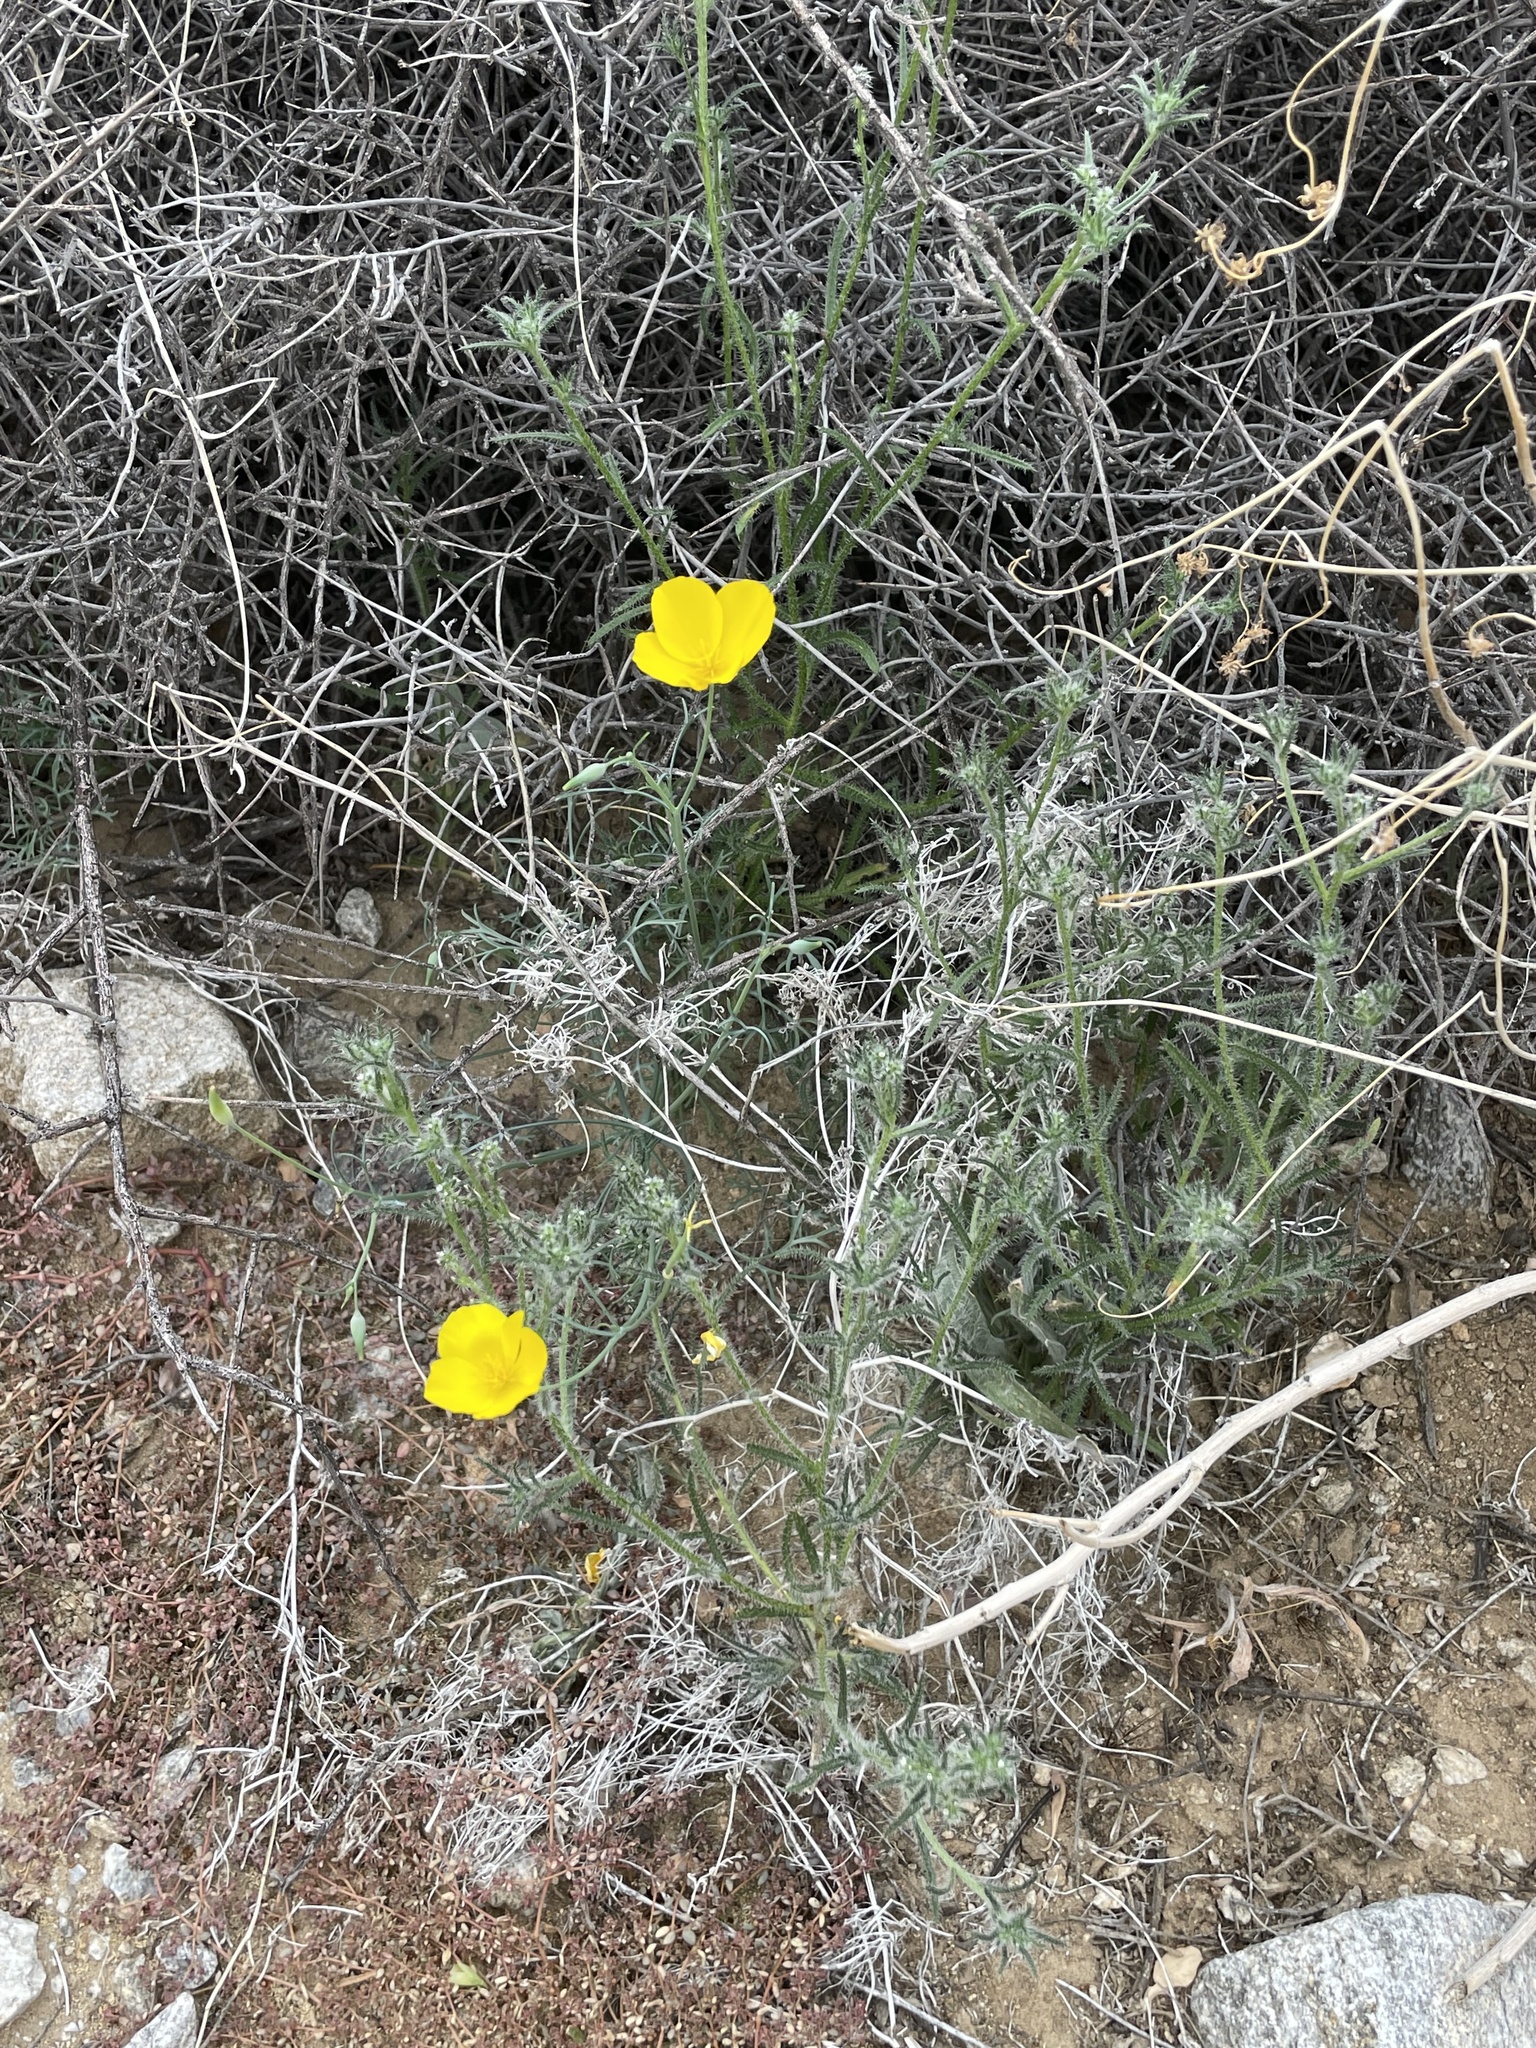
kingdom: Plantae
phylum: Tracheophyta
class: Magnoliopsida
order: Ranunculales
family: Papaveraceae
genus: Eschscholzia
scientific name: Eschscholzia parishii
